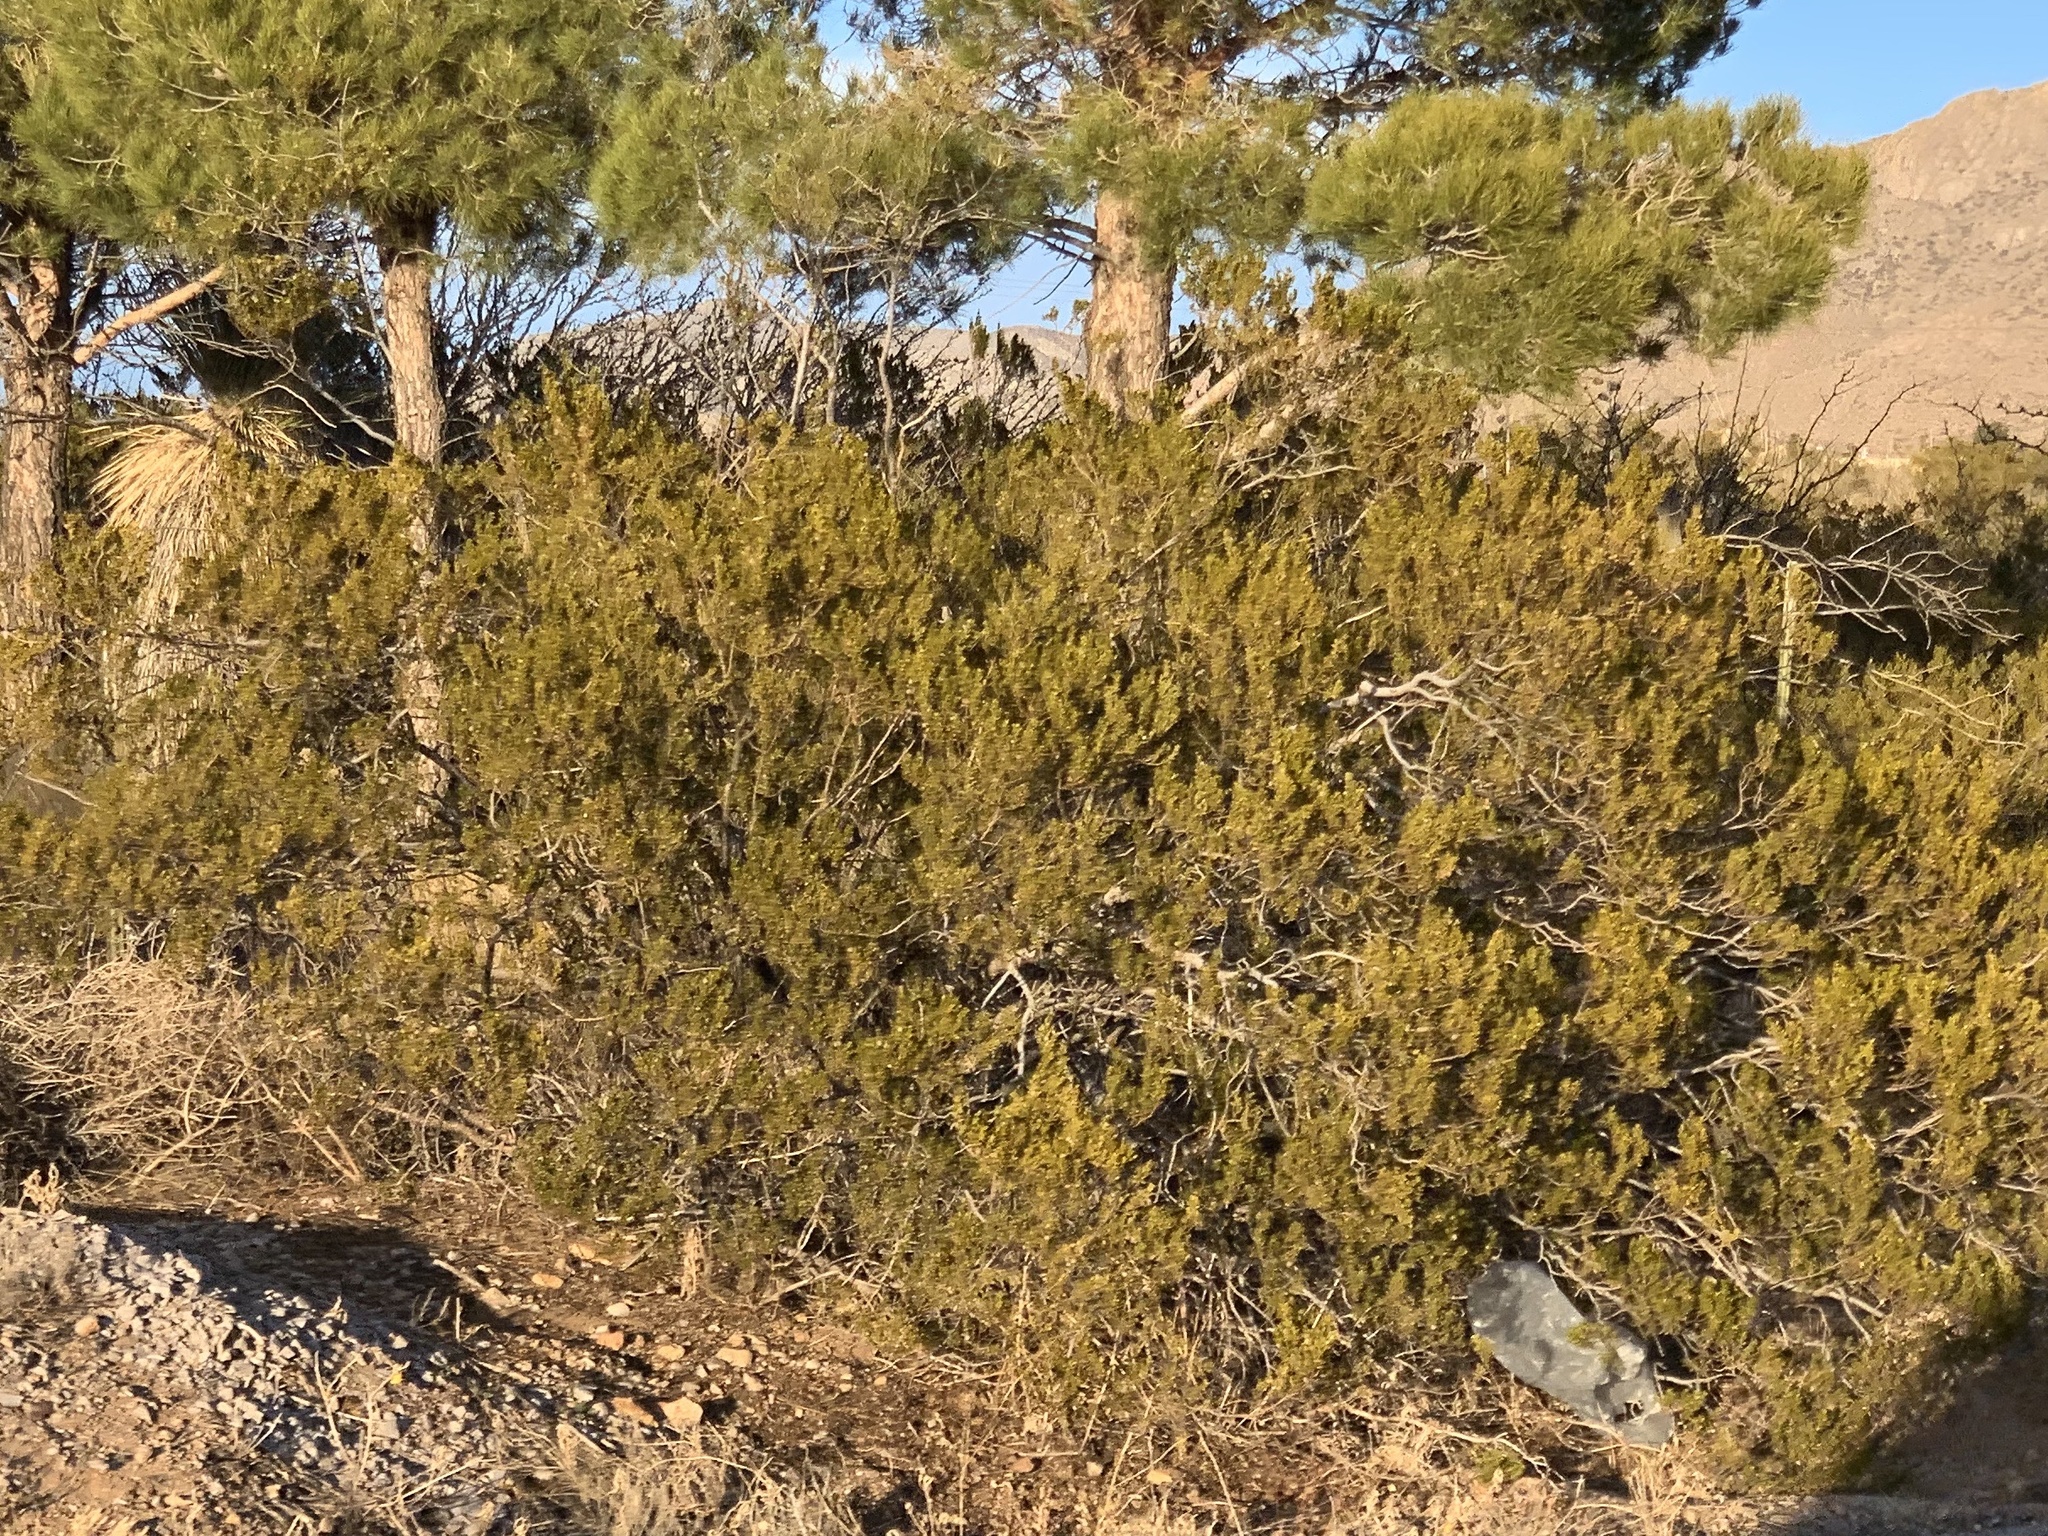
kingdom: Plantae
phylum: Tracheophyta
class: Magnoliopsida
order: Zygophyllales
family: Zygophyllaceae
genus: Larrea
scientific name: Larrea tridentata
